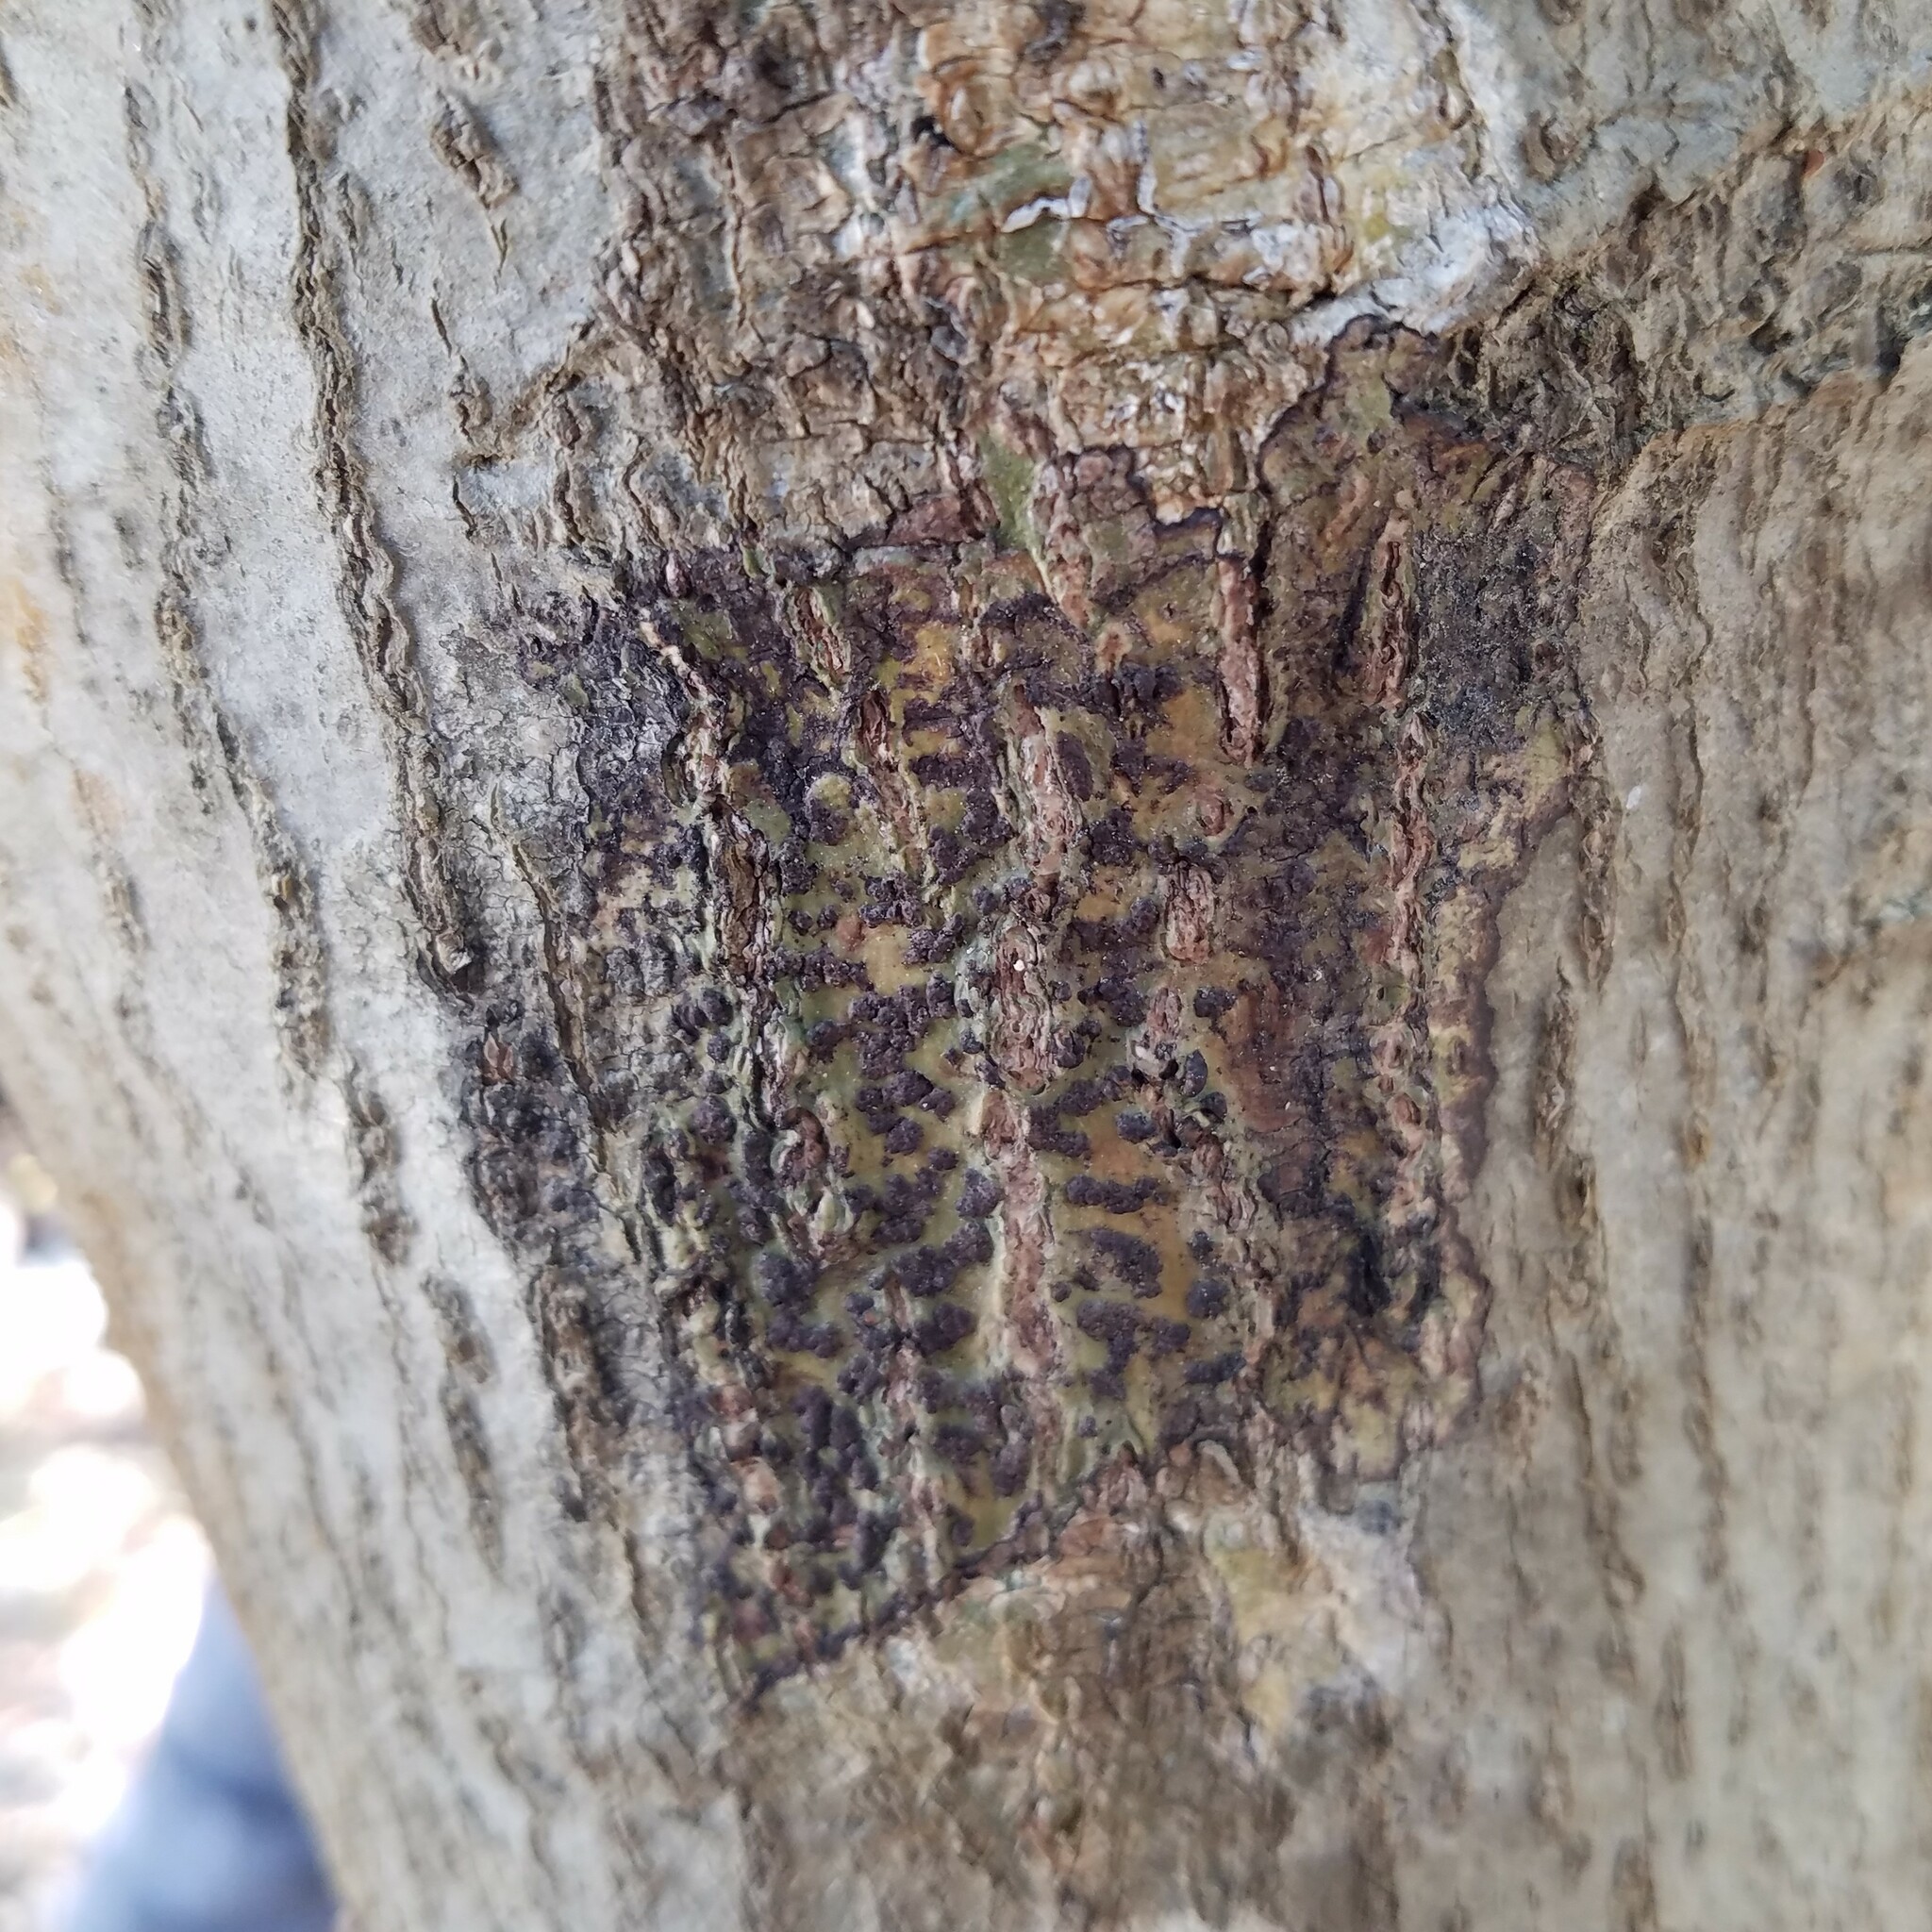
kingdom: Fungi
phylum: Ascomycota
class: Dothideomycetes
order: Trypetheliales
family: Trypetheliaceae
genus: Bathelium
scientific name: Bathelium carolinianum
